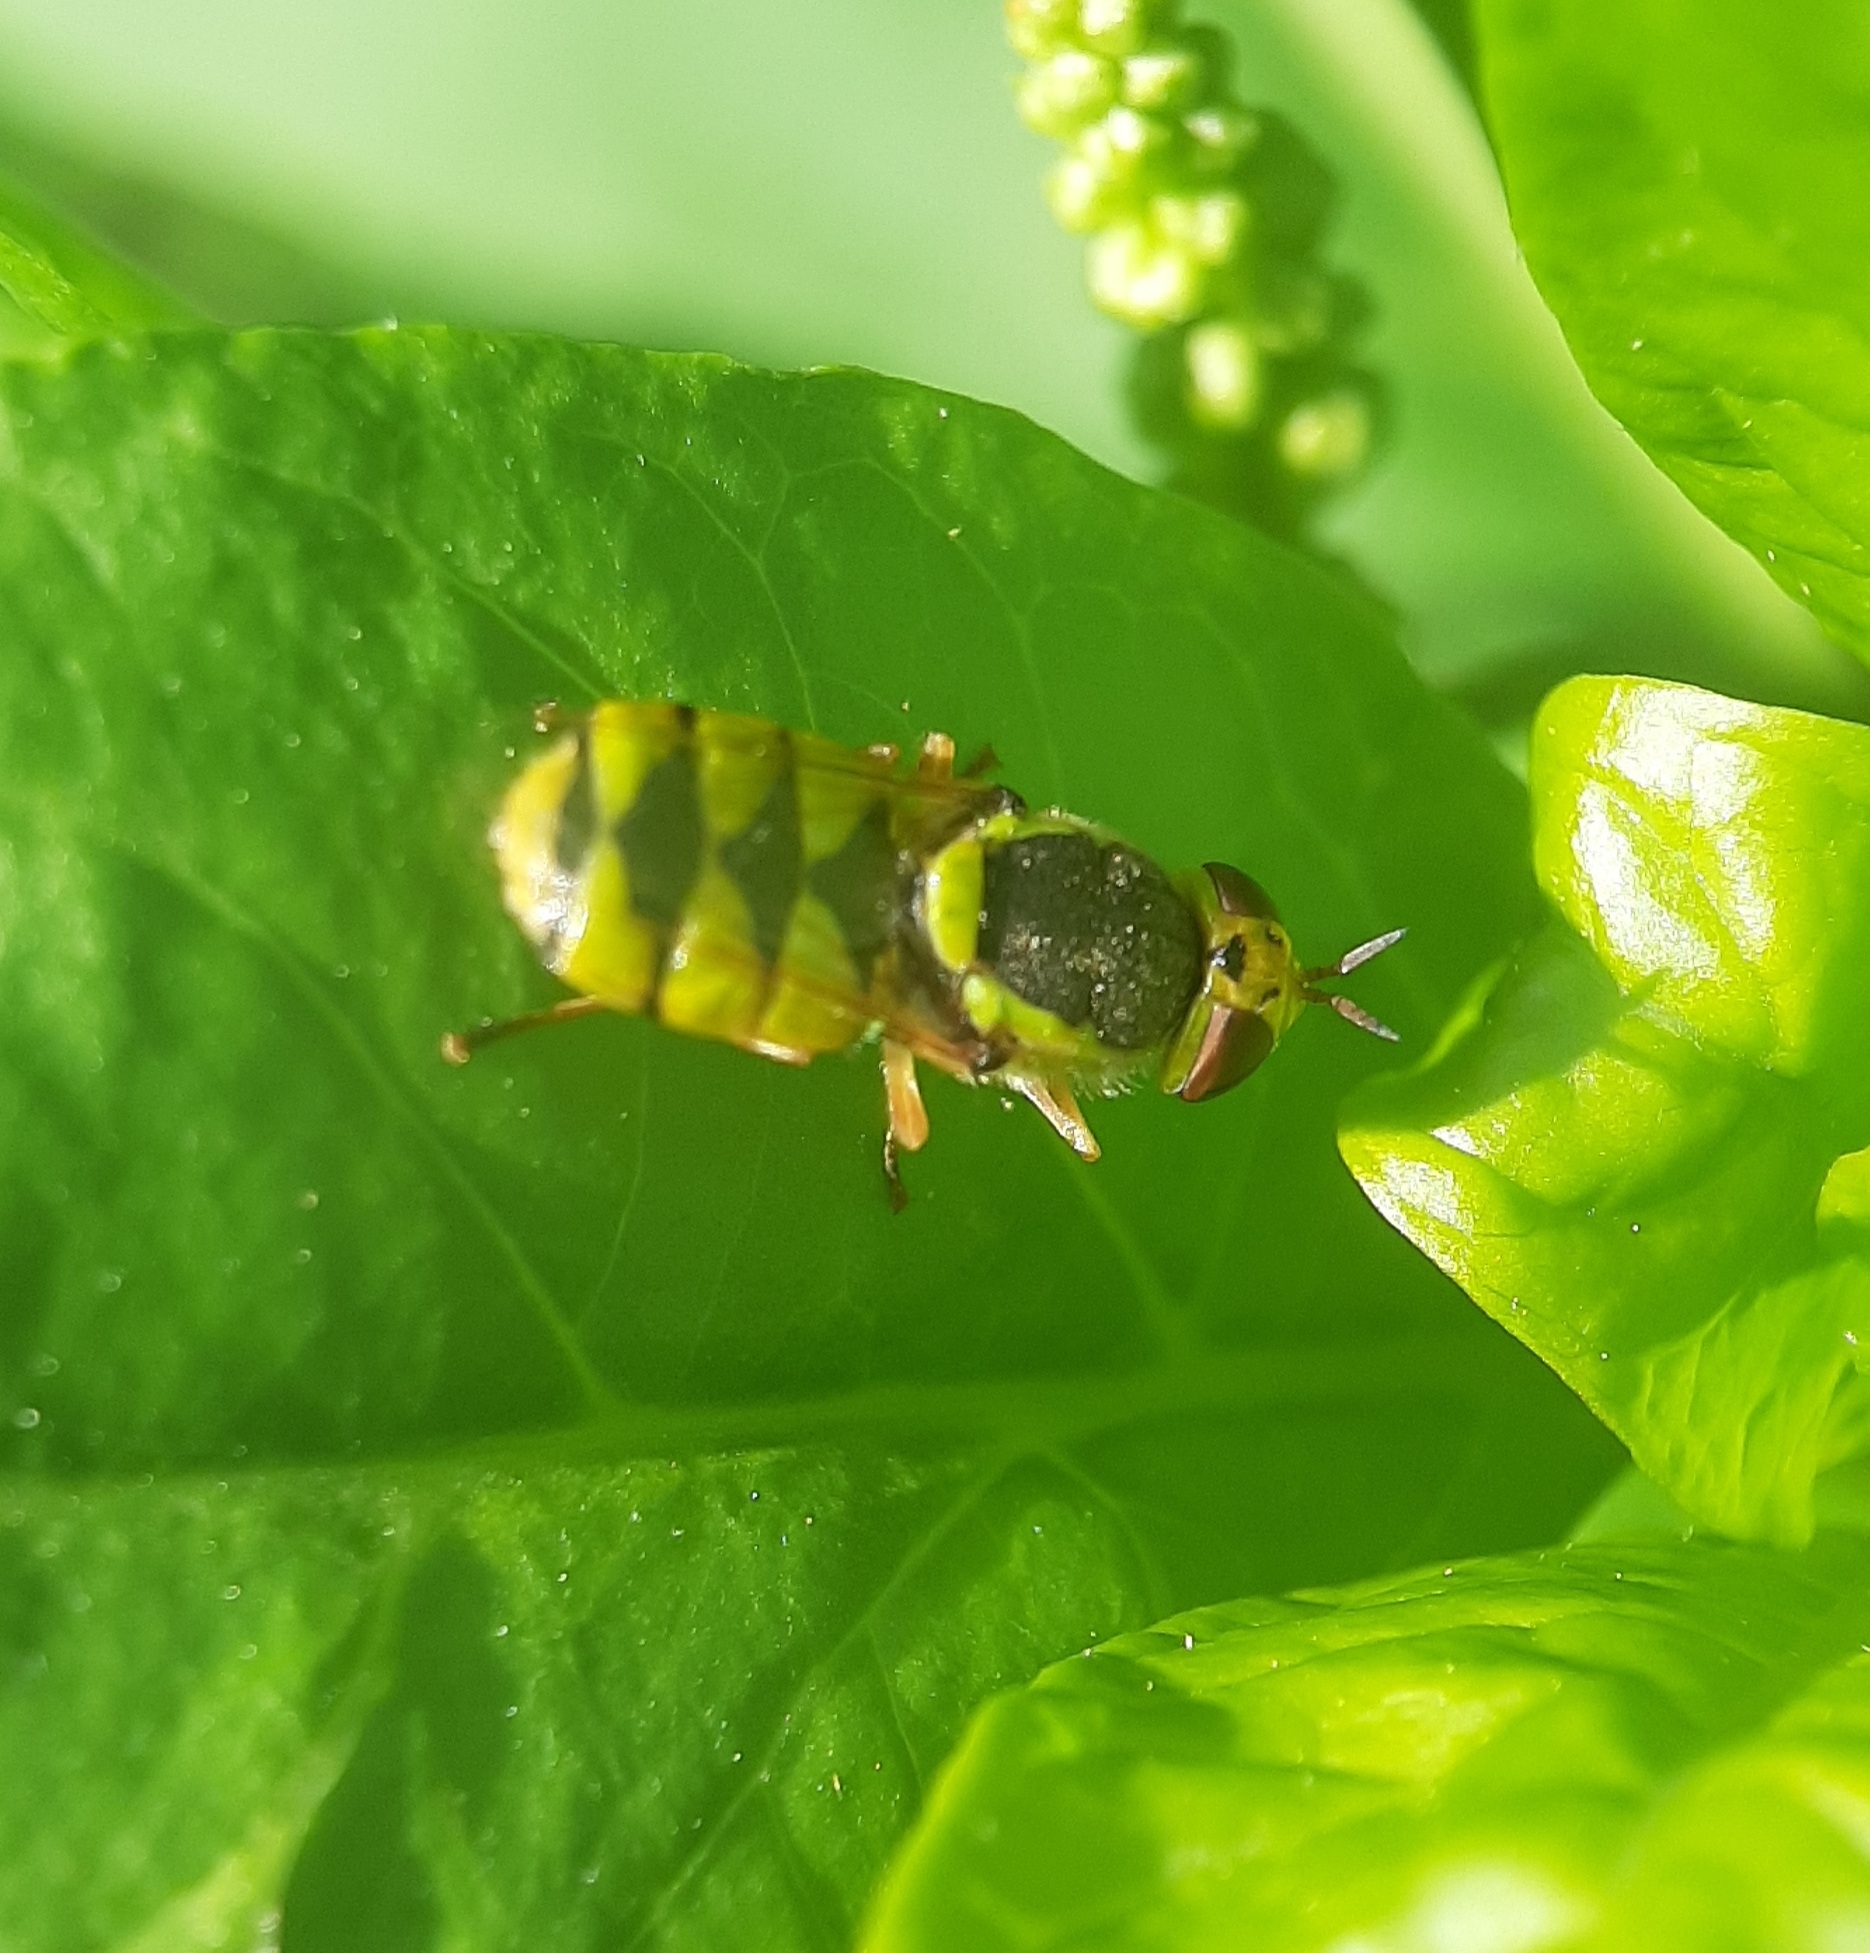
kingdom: Animalia
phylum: Arthropoda
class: Insecta
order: Diptera
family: Stratiomyidae
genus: Odontomyia
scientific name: Odontomyia cincta
